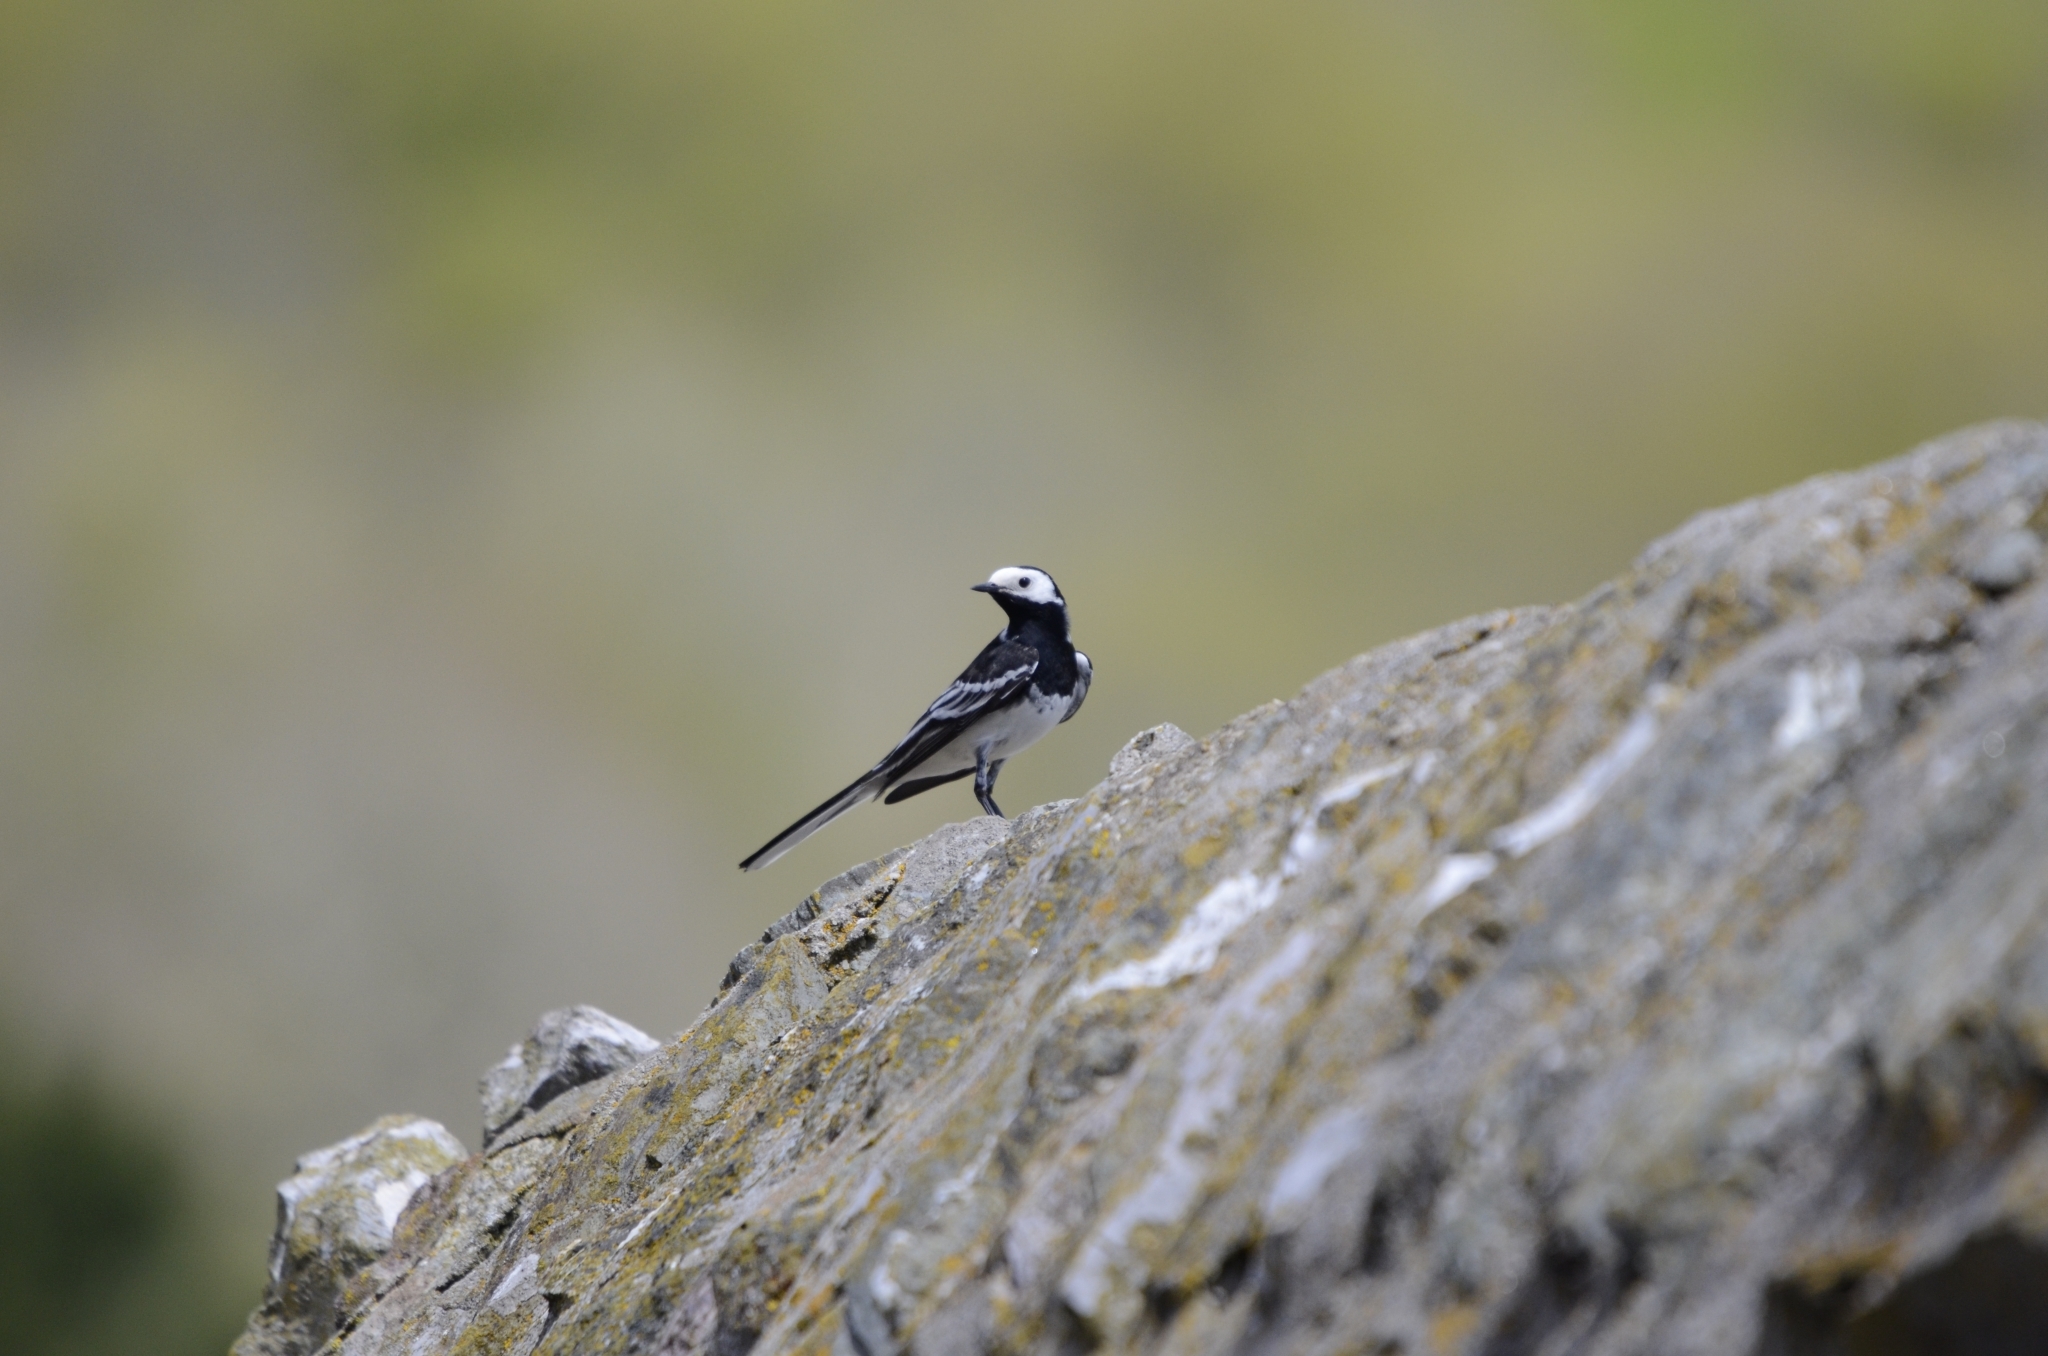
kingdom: Animalia
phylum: Chordata
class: Aves
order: Passeriformes
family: Motacillidae
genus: Motacilla
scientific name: Motacilla alba
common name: White wagtail
